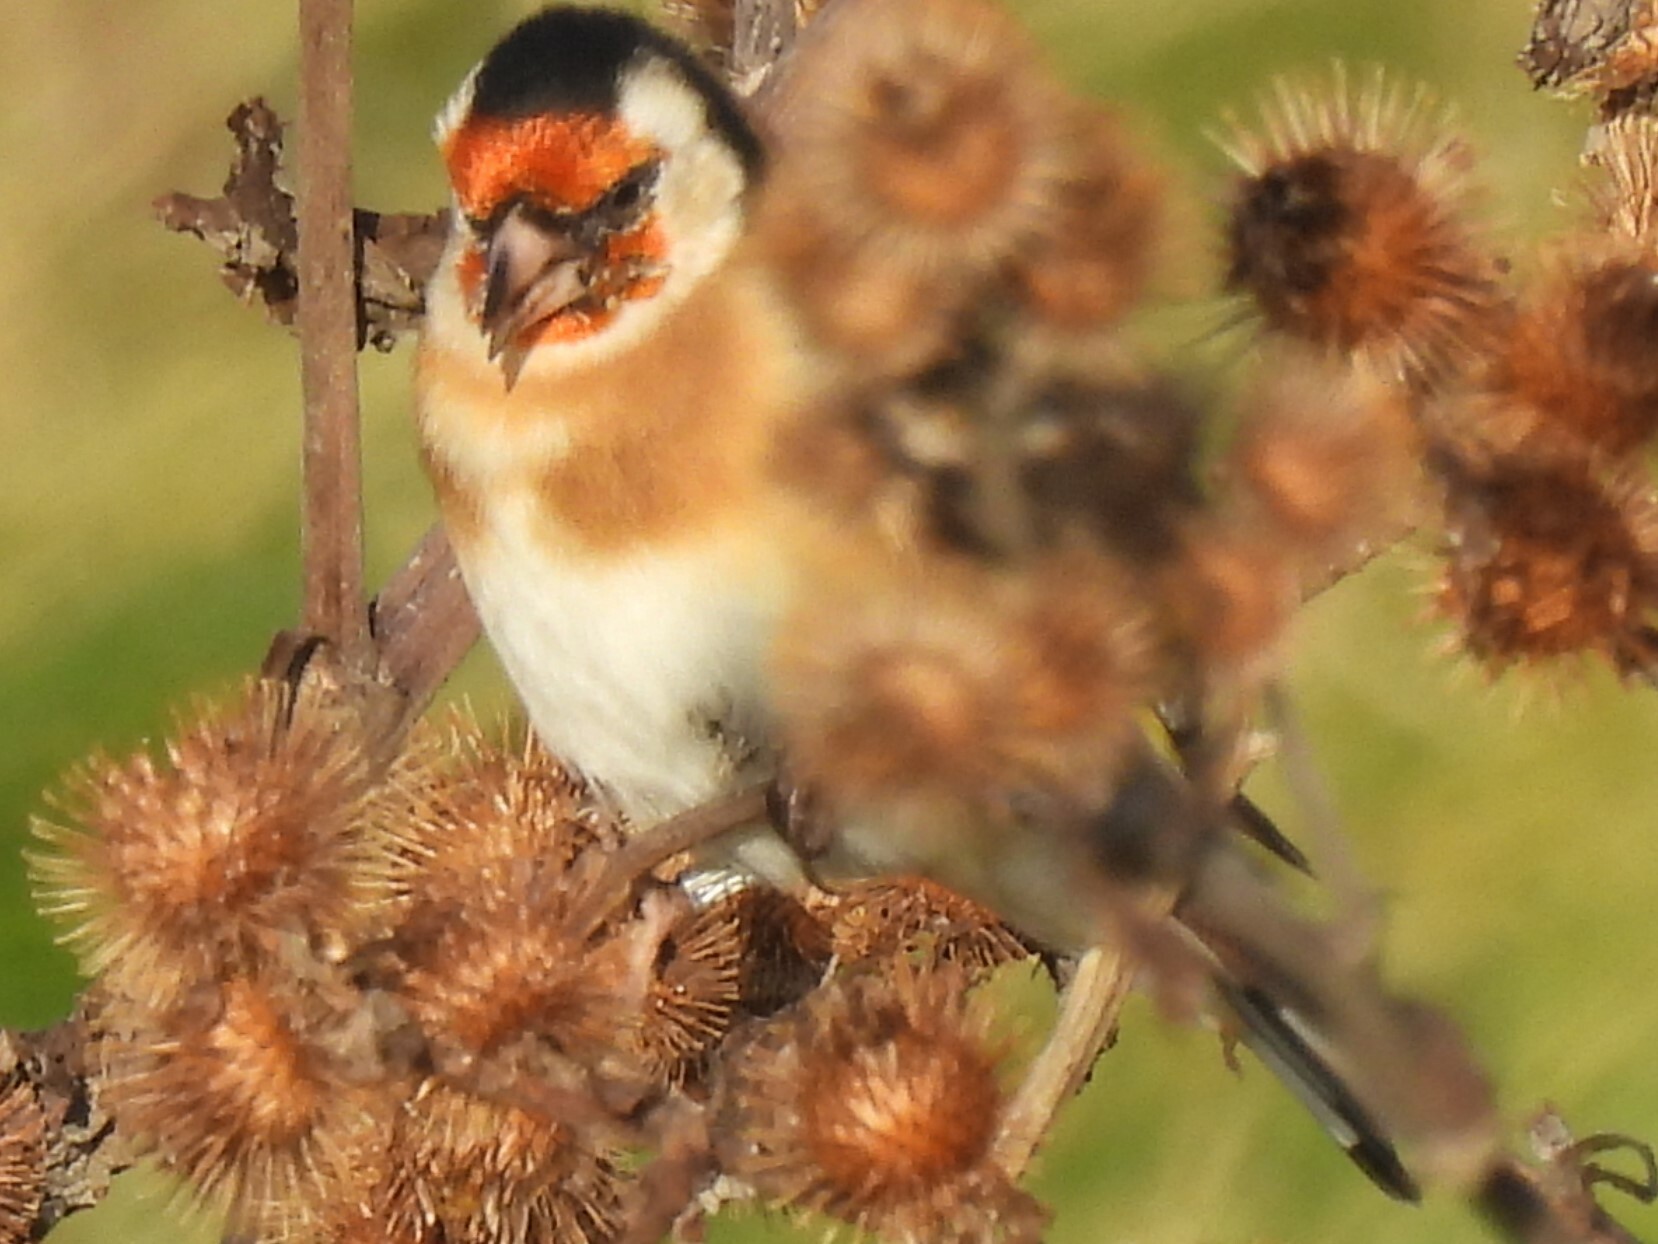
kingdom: Animalia
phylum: Chordata
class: Aves
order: Passeriformes
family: Fringillidae
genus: Carduelis
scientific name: Carduelis carduelis
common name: European goldfinch
